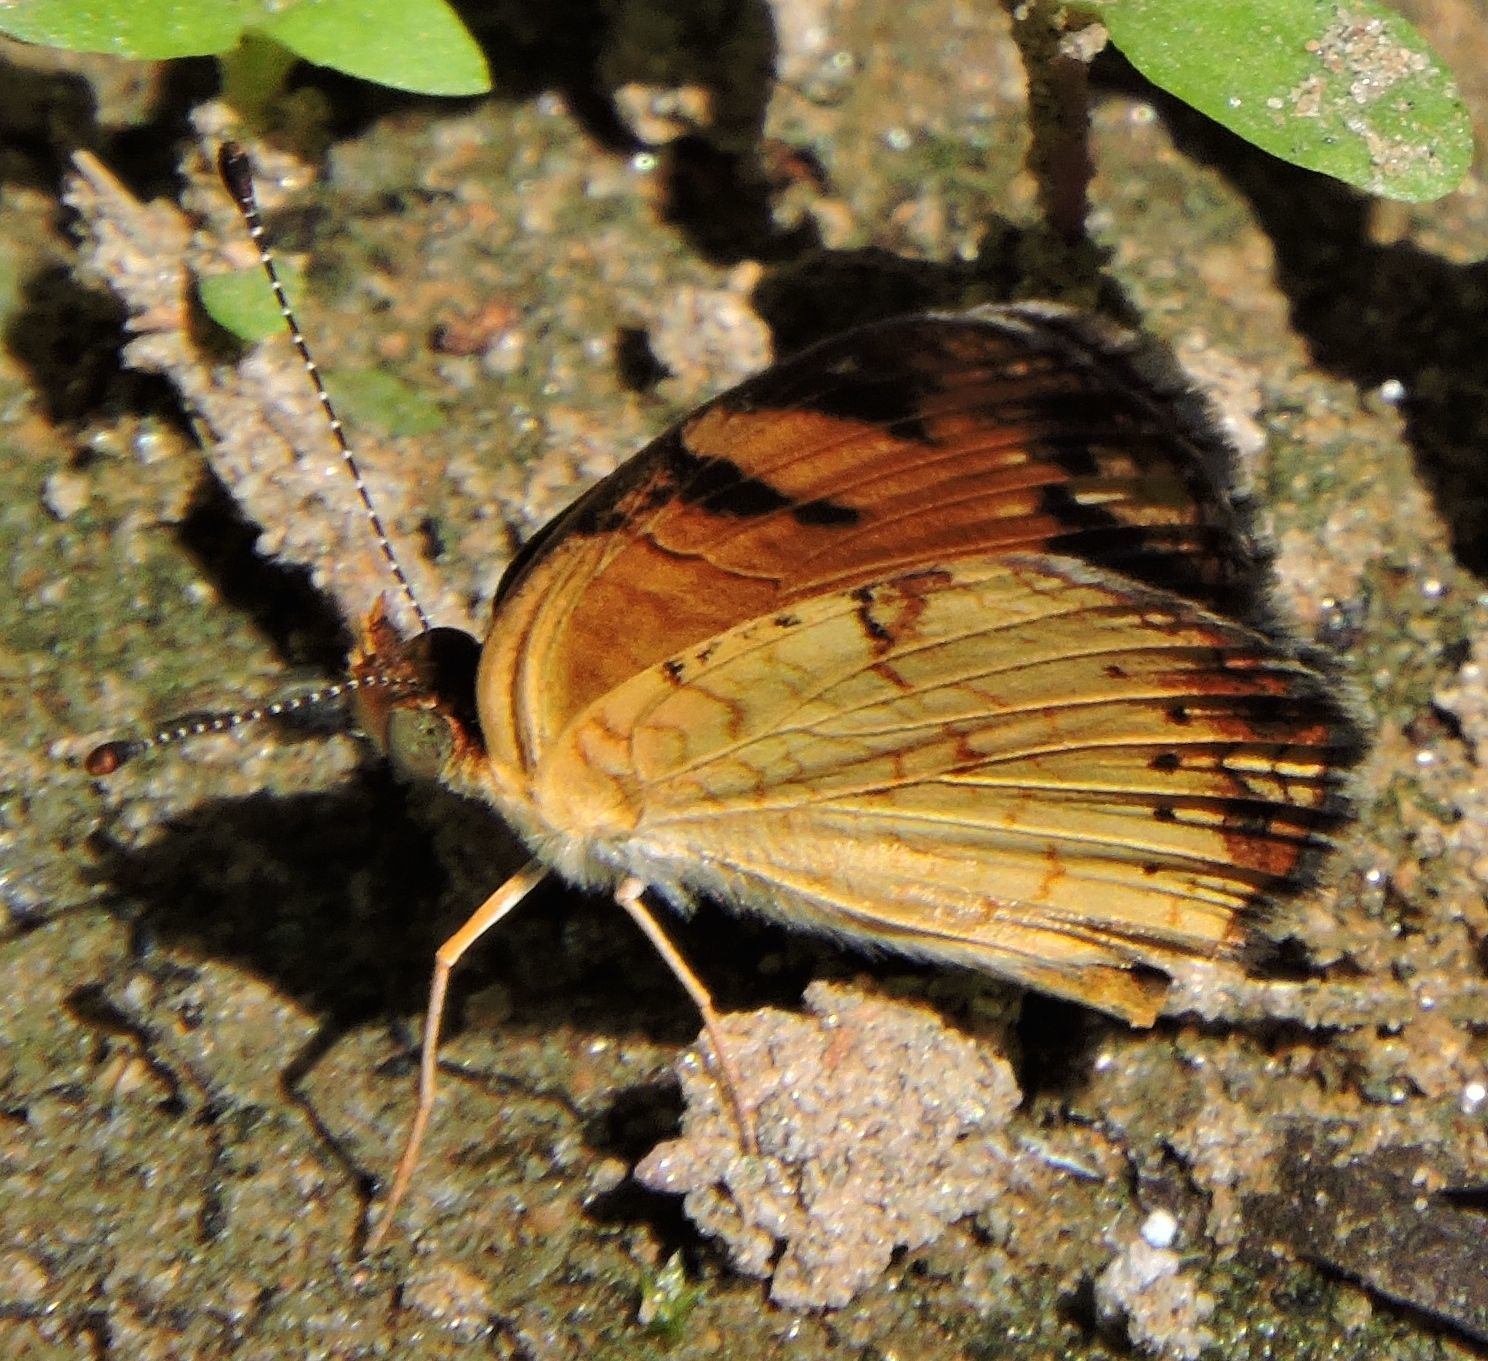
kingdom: Animalia
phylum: Arthropoda
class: Insecta
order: Lepidoptera
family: Nymphalidae
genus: Phyciodes
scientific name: Phyciodes tharos
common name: Pearl crescent
